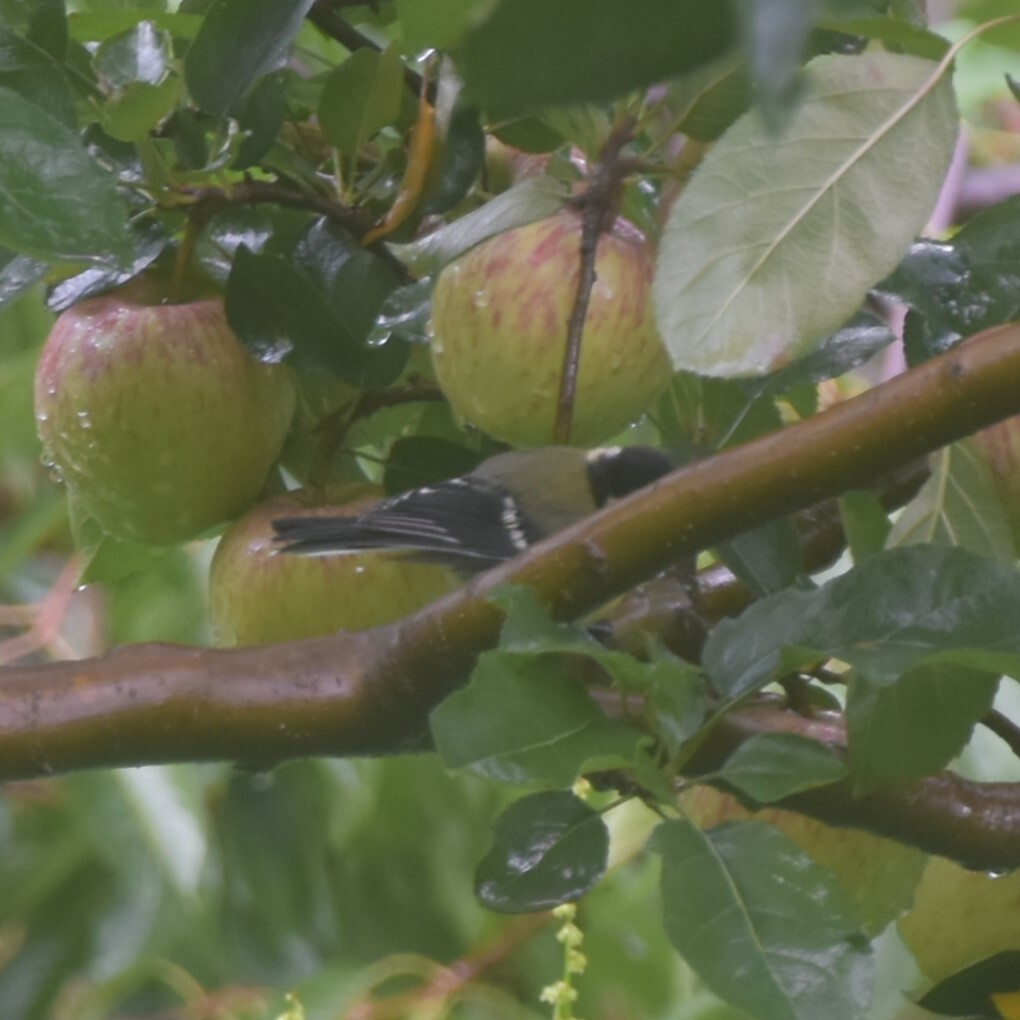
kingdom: Animalia
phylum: Chordata
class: Aves
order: Passeriformes
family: Paridae
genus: Parus
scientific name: Parus monticolus
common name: Green-backed tit
